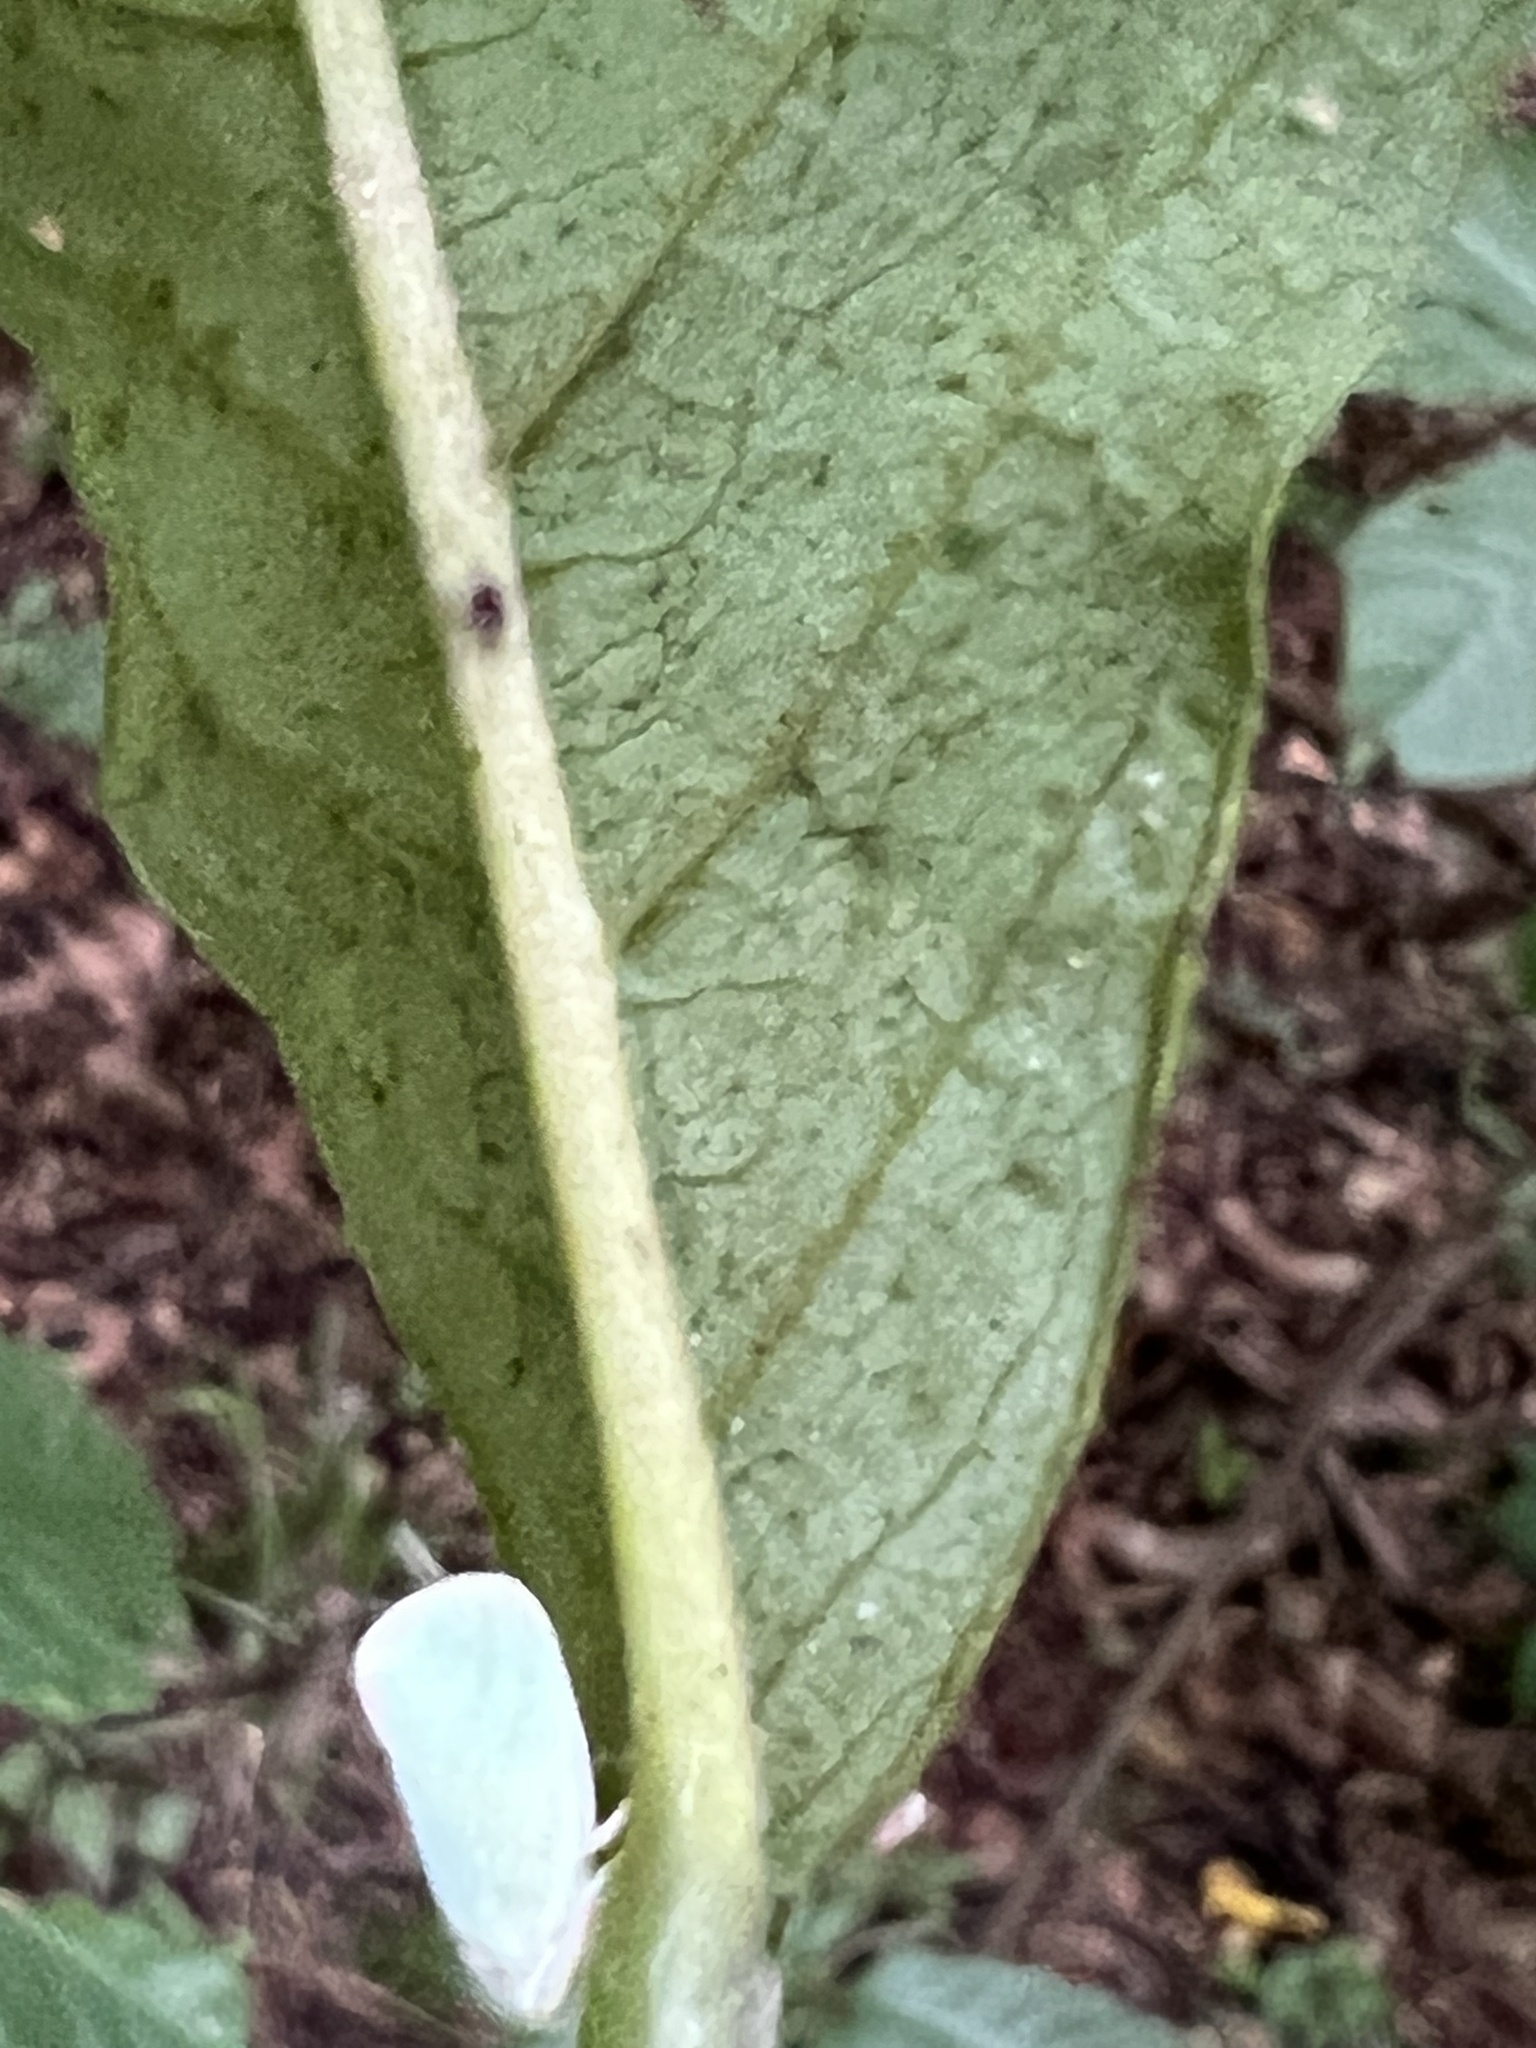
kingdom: Animalia
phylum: Arthropoda
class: Insecta
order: Hemiptera
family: Flatidae
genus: Ormenoides
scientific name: Ormenoides venusta
